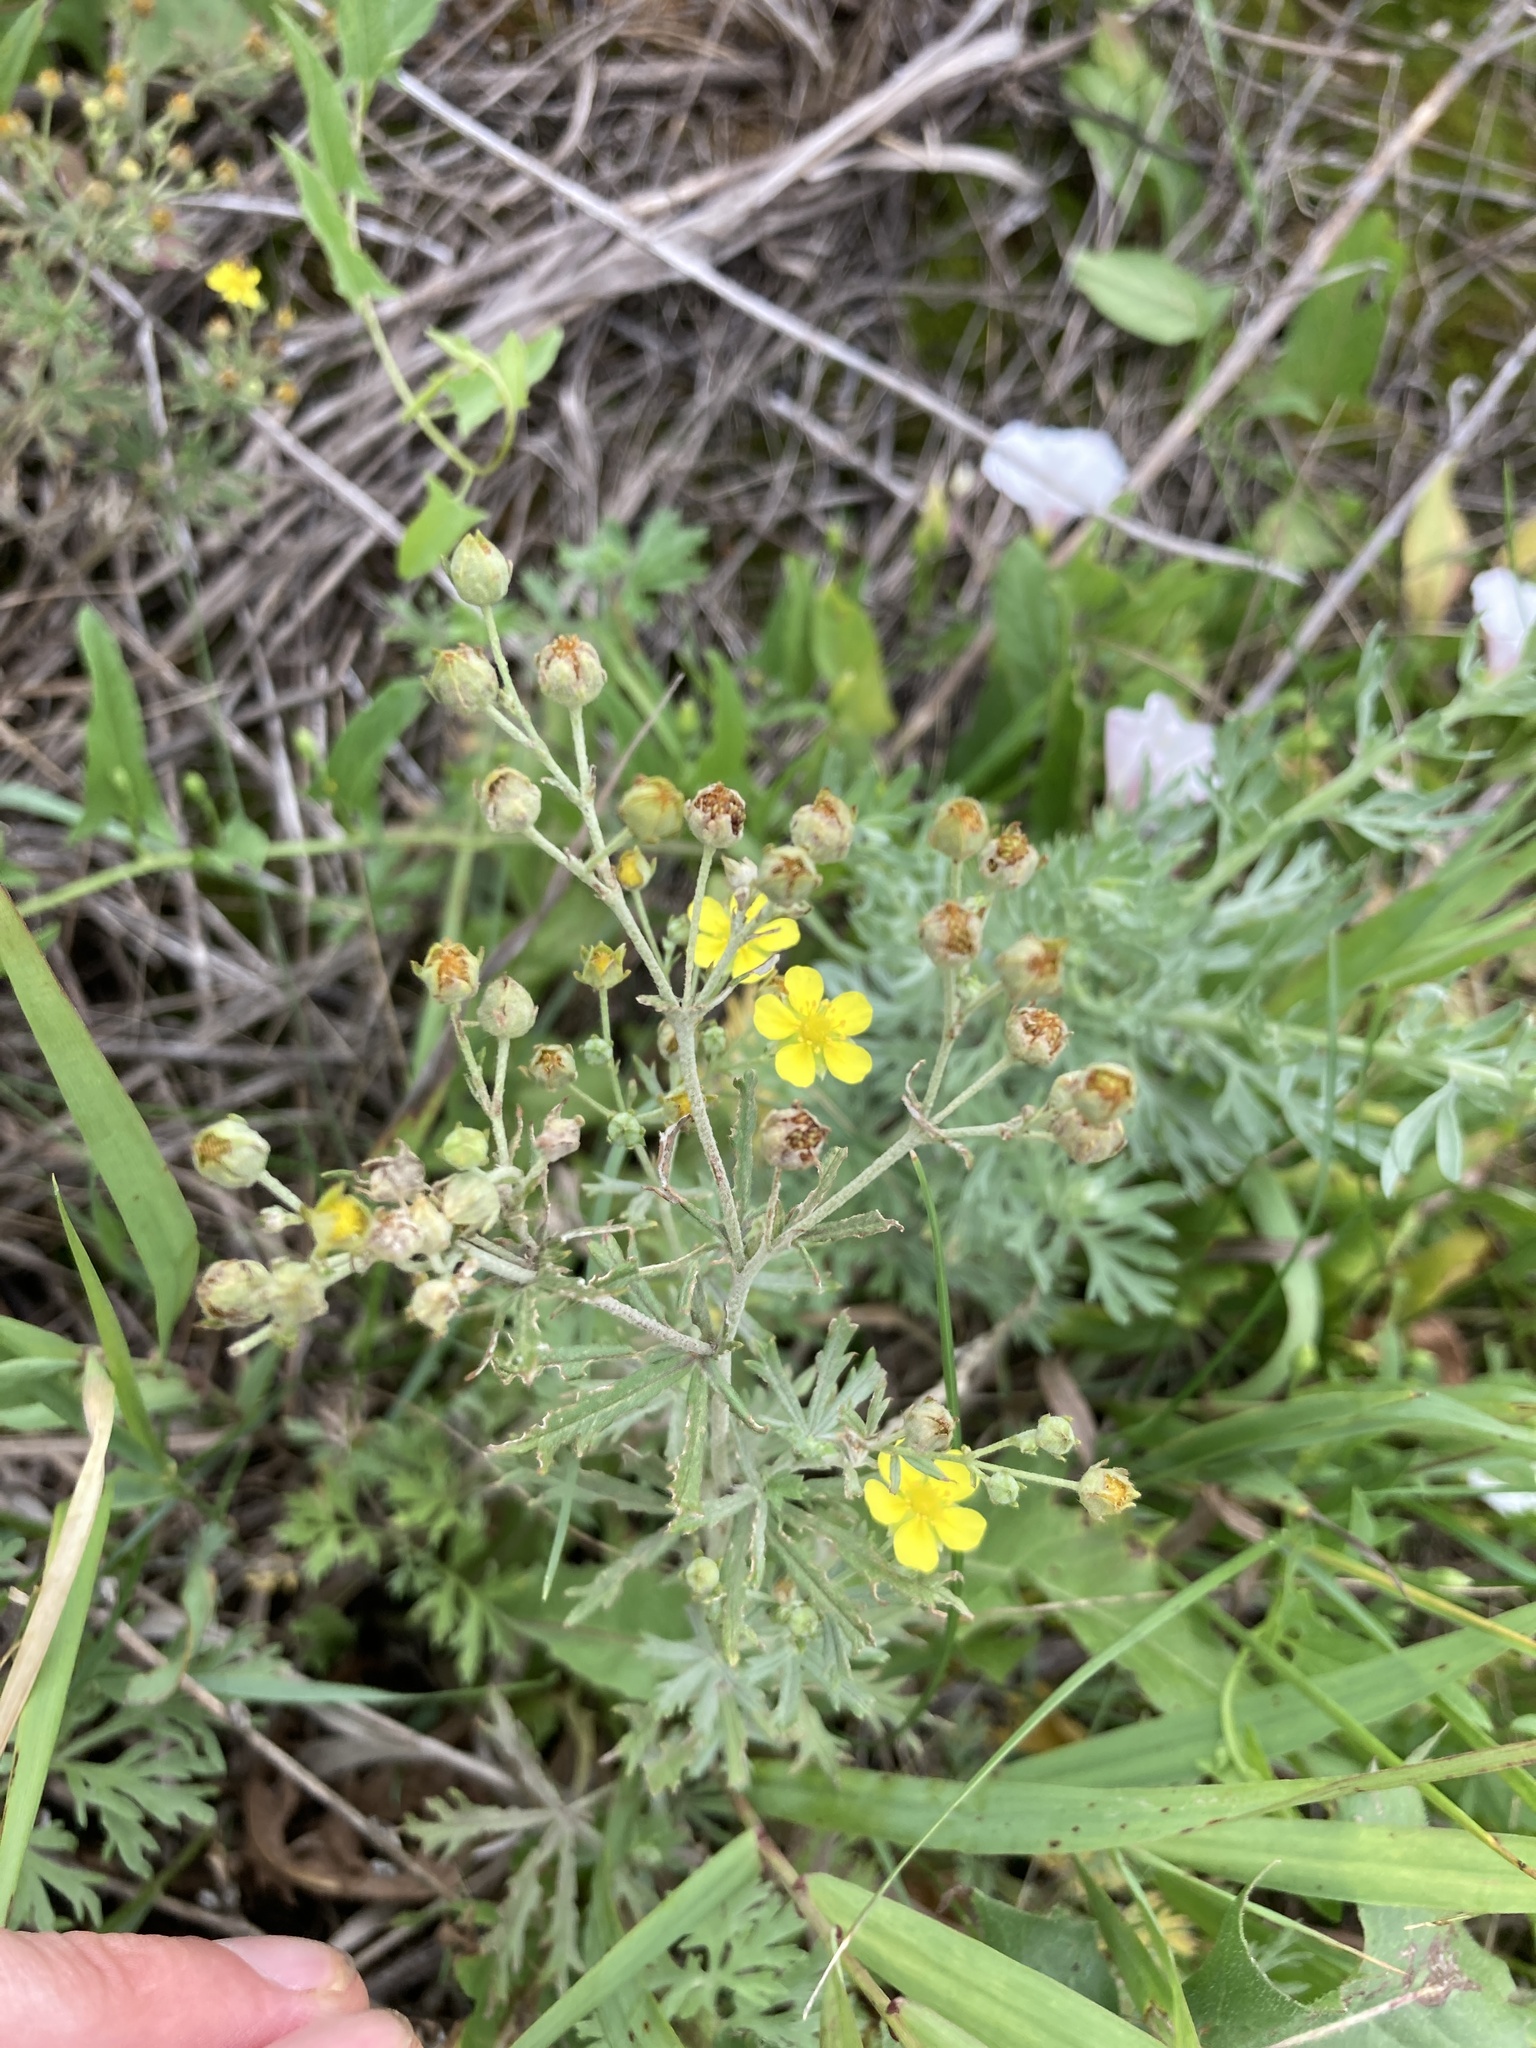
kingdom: Plantae
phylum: Tracheophyta
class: Magnoliopsida
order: Rosales
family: Rosaceae
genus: Potentilla
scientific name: Potentilla argentea
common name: Hoary cinquefoil
